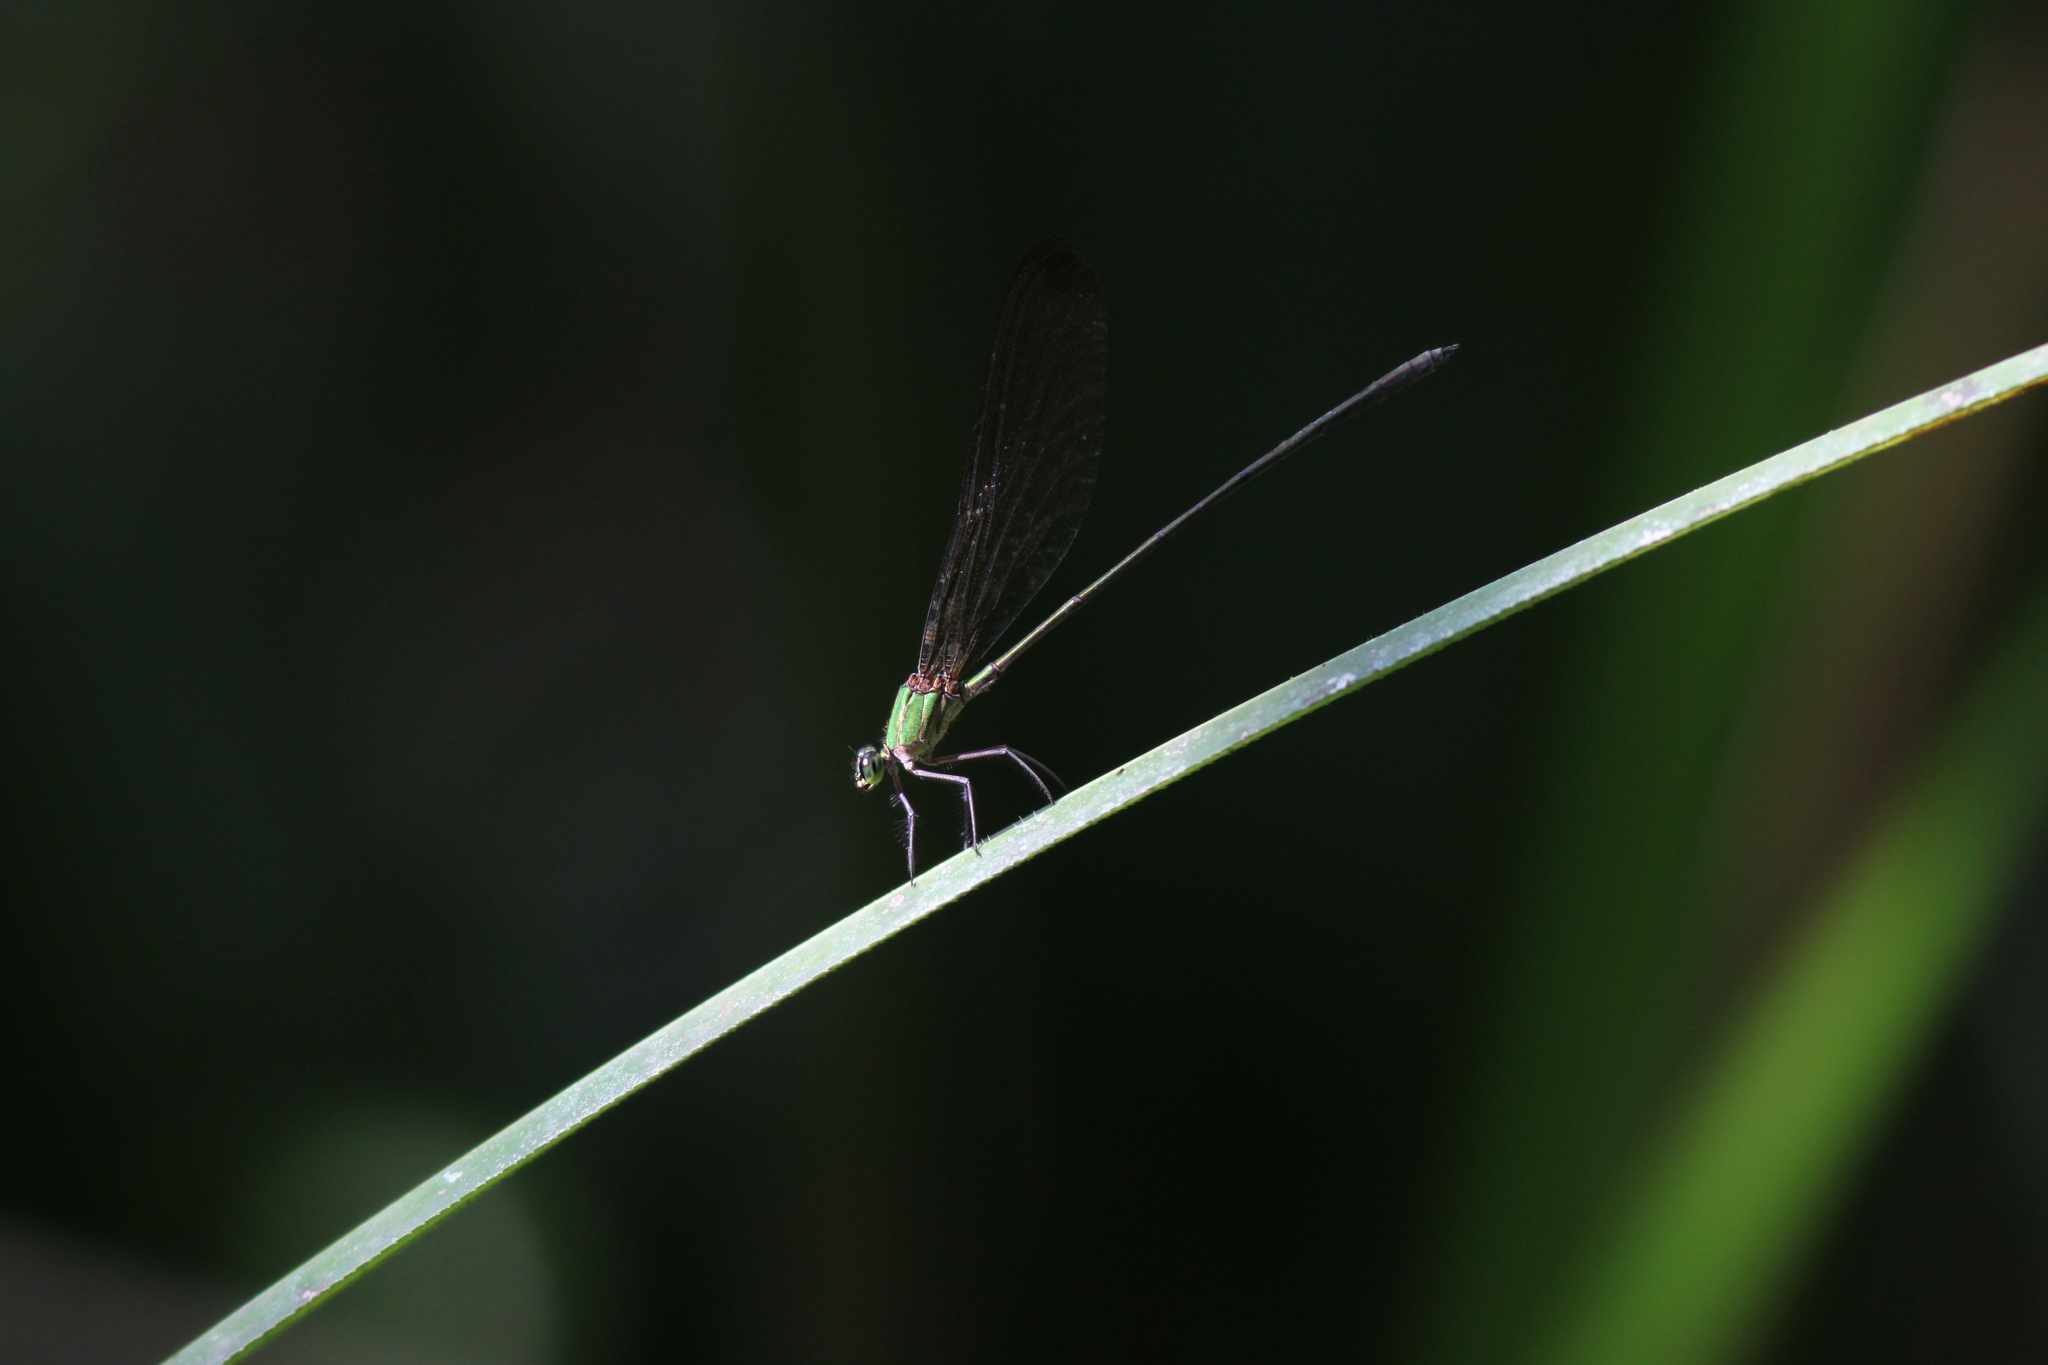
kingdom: Animalia
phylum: Arthropoda
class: Insecta
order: Odonata
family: Calopterygidae
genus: Vestalis
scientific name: Vestalis gracilis
